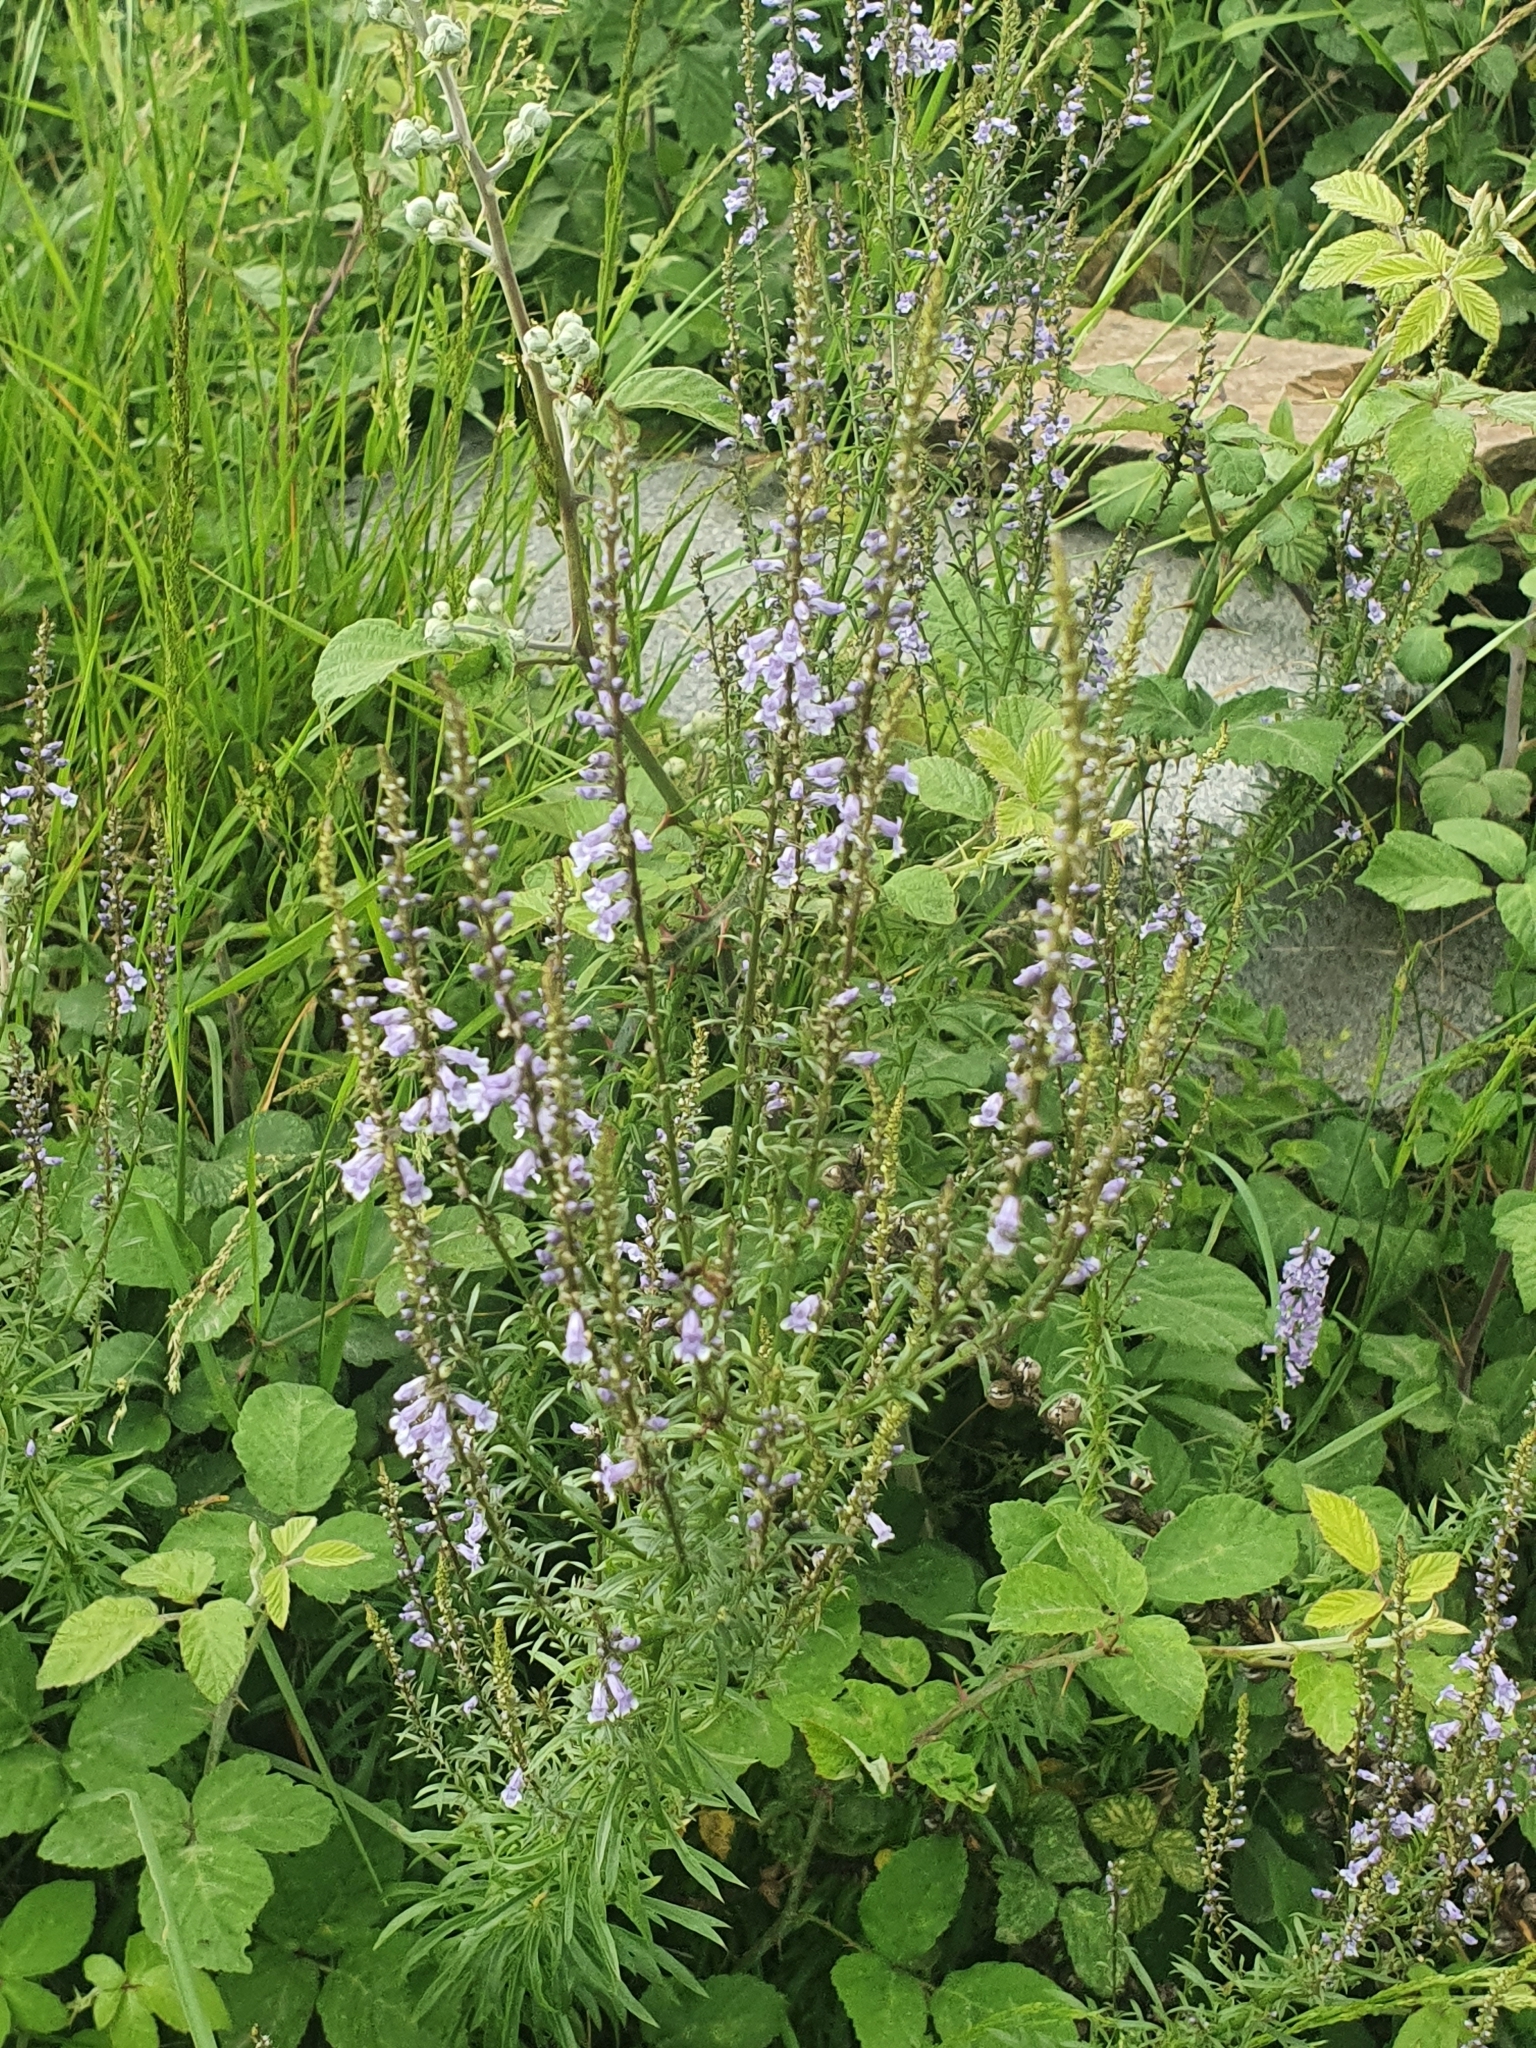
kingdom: Plantae
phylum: Tracheophyta
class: Magnoliopsida
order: Lamiales
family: Plantaginaceae
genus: Anarrhinum
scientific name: Anarrhinum bellidifolium
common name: Daisy-leaved toadflax
